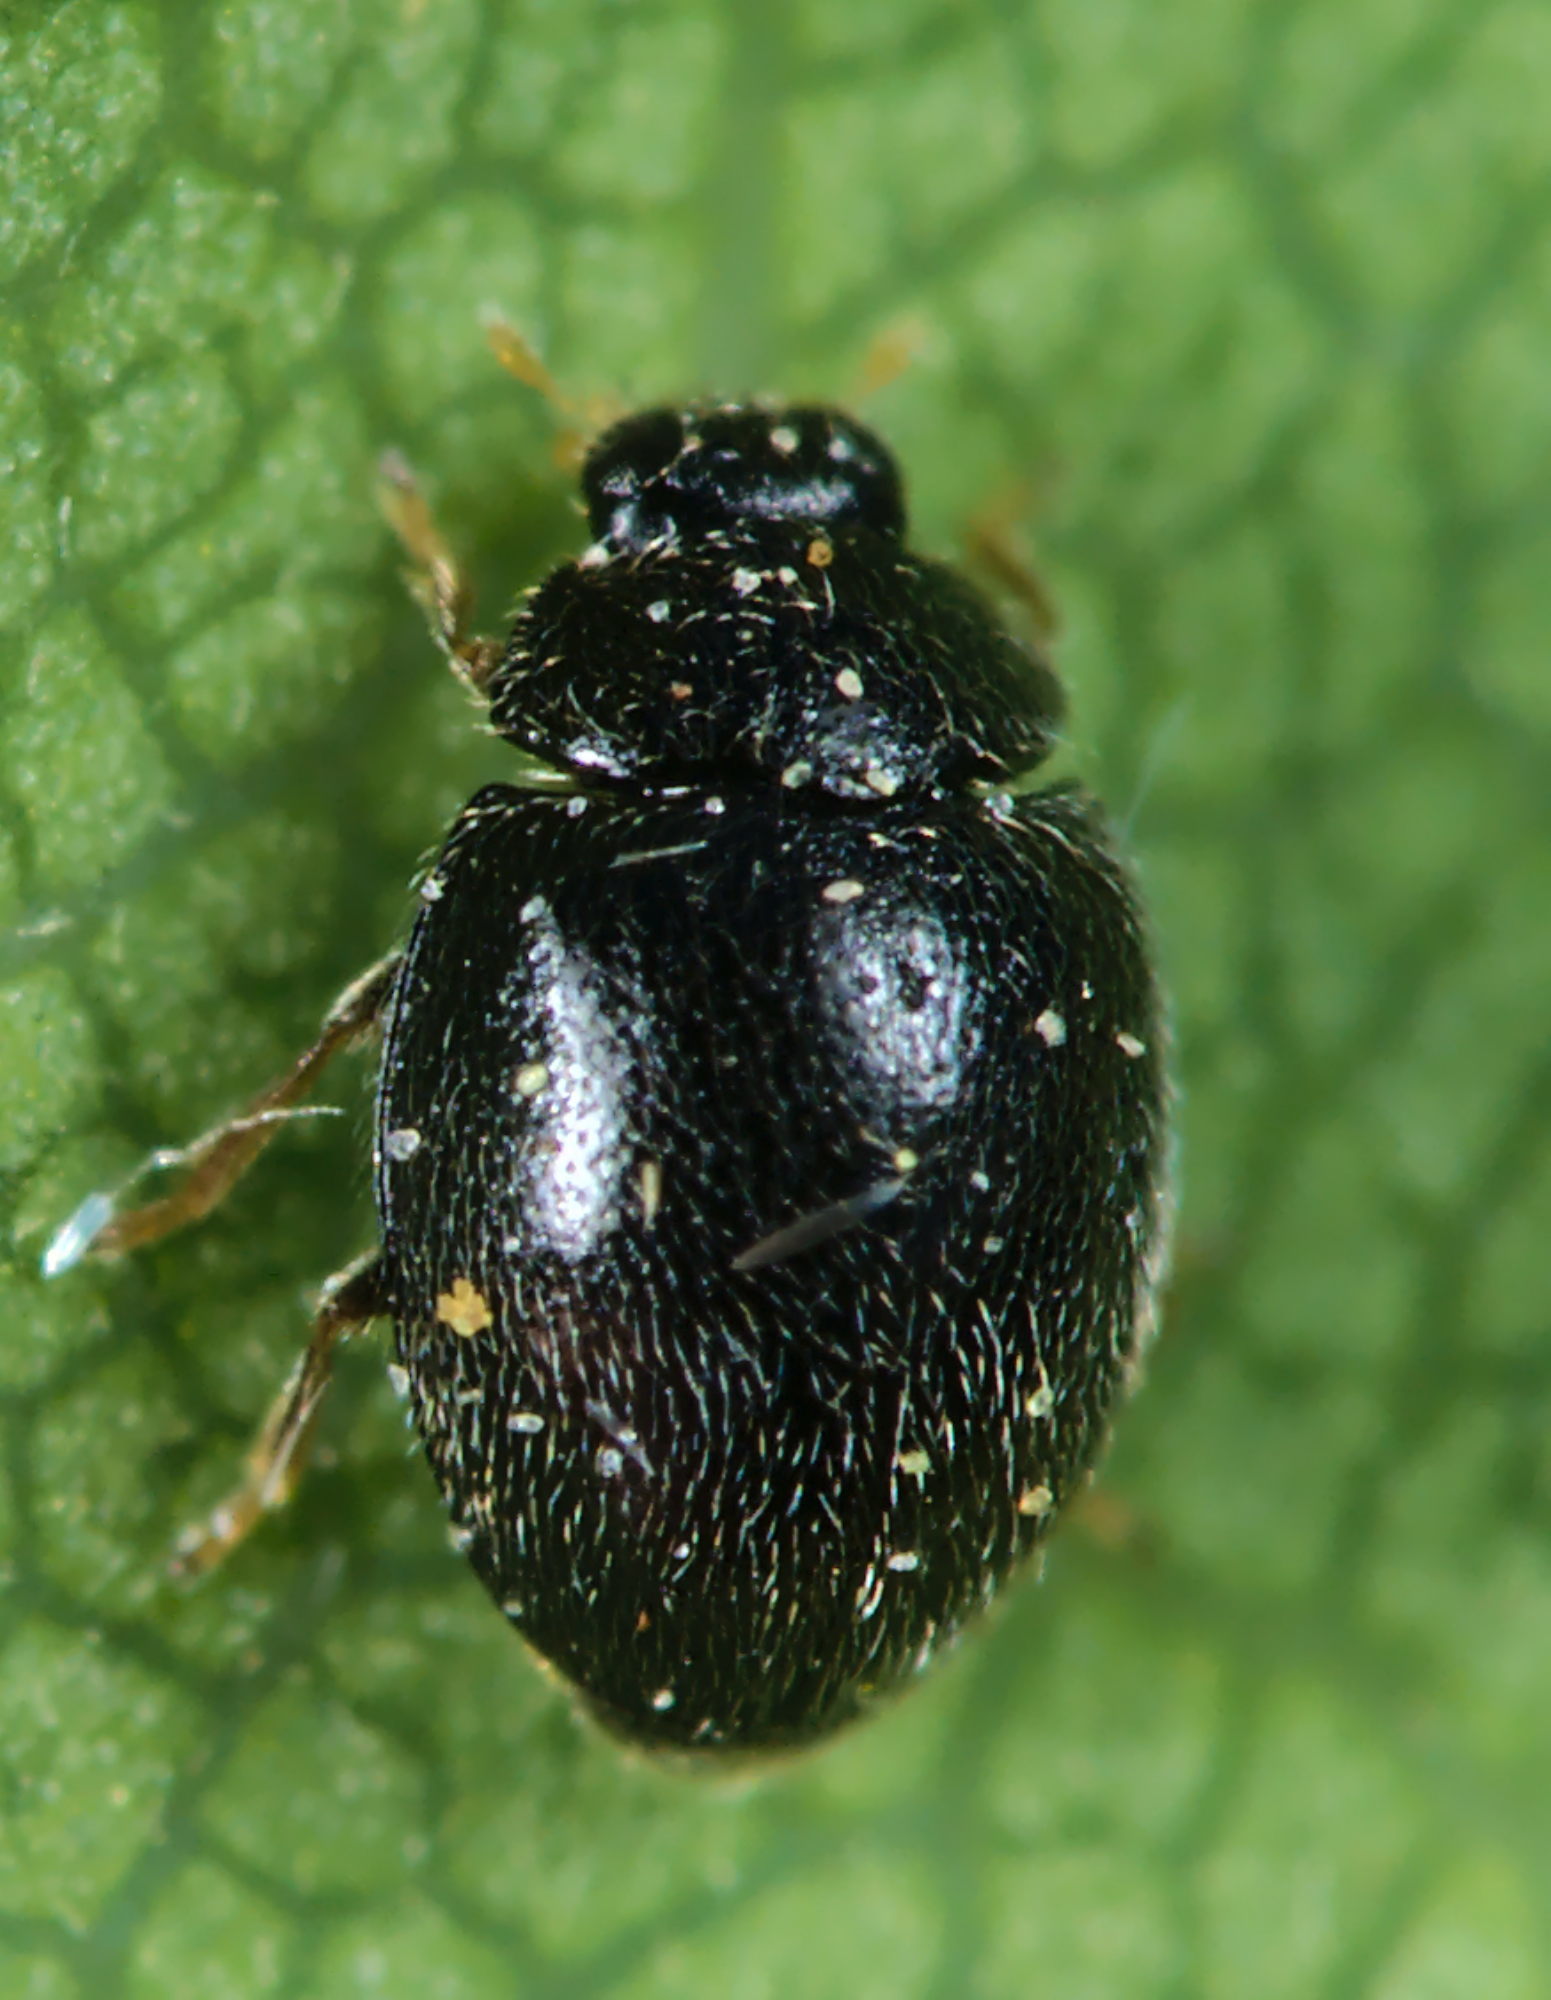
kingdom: Animalia
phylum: Arthropoda
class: Insecta
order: Coleoptera
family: Coccinellidae
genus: Stethorus
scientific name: Stethorus pusillus
